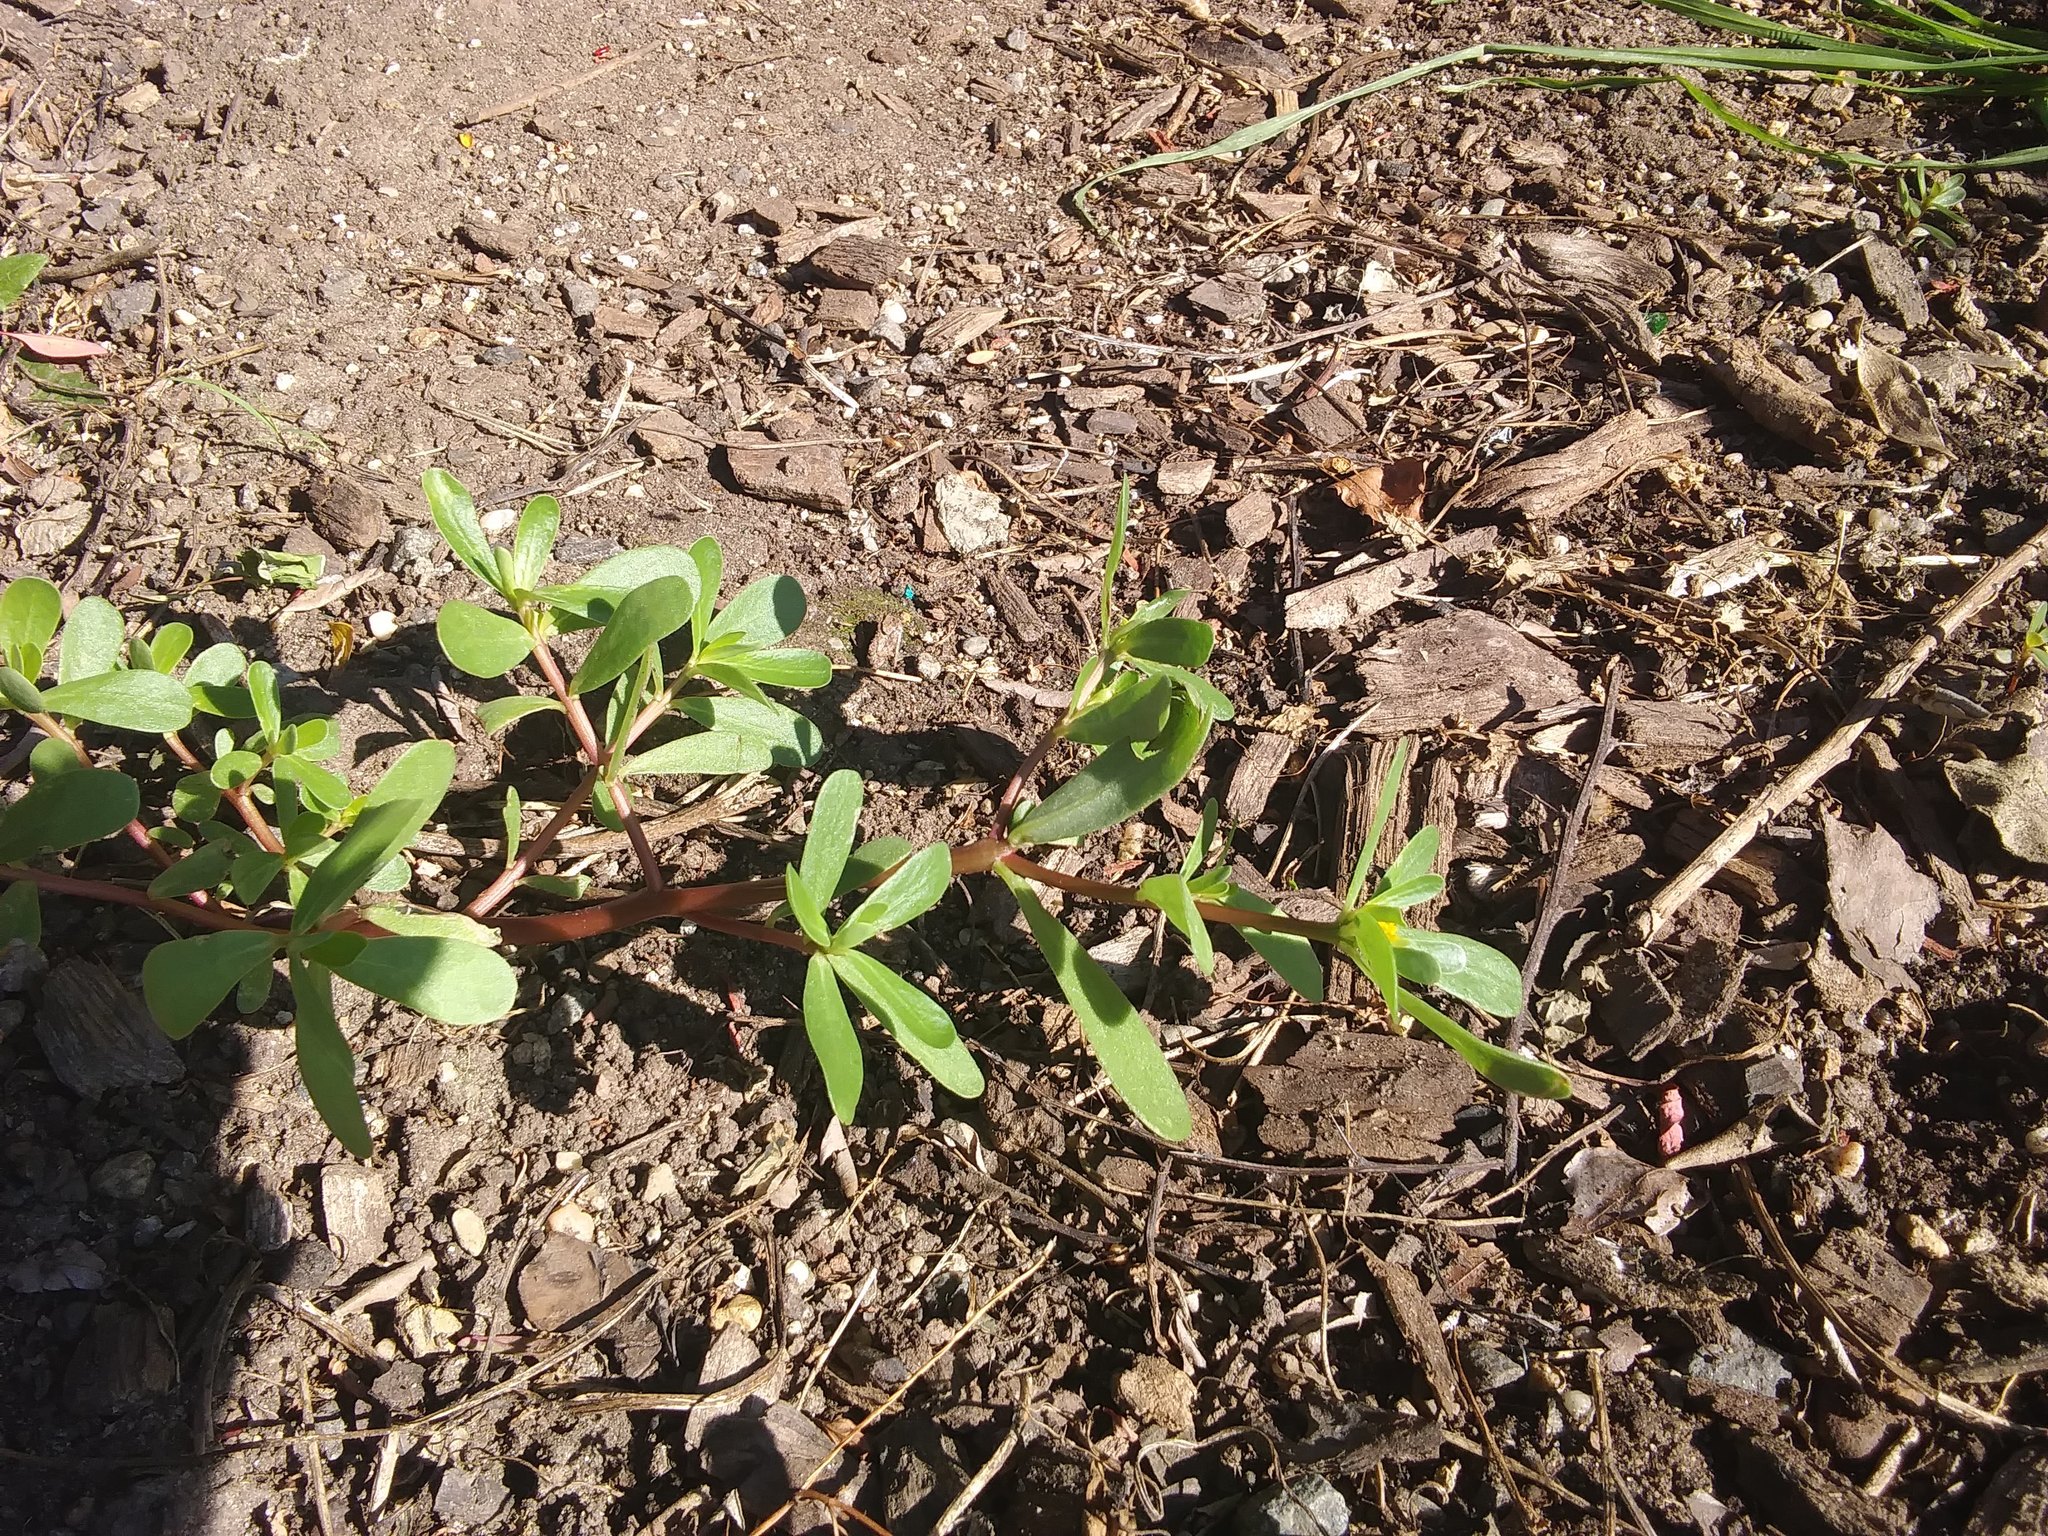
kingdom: Plantae
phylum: Tracheophyta
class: Magnoliopsida
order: Caryophyllales
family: Portulacaceae
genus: Portulaca
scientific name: Portulaca oleracea
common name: Common purslane
